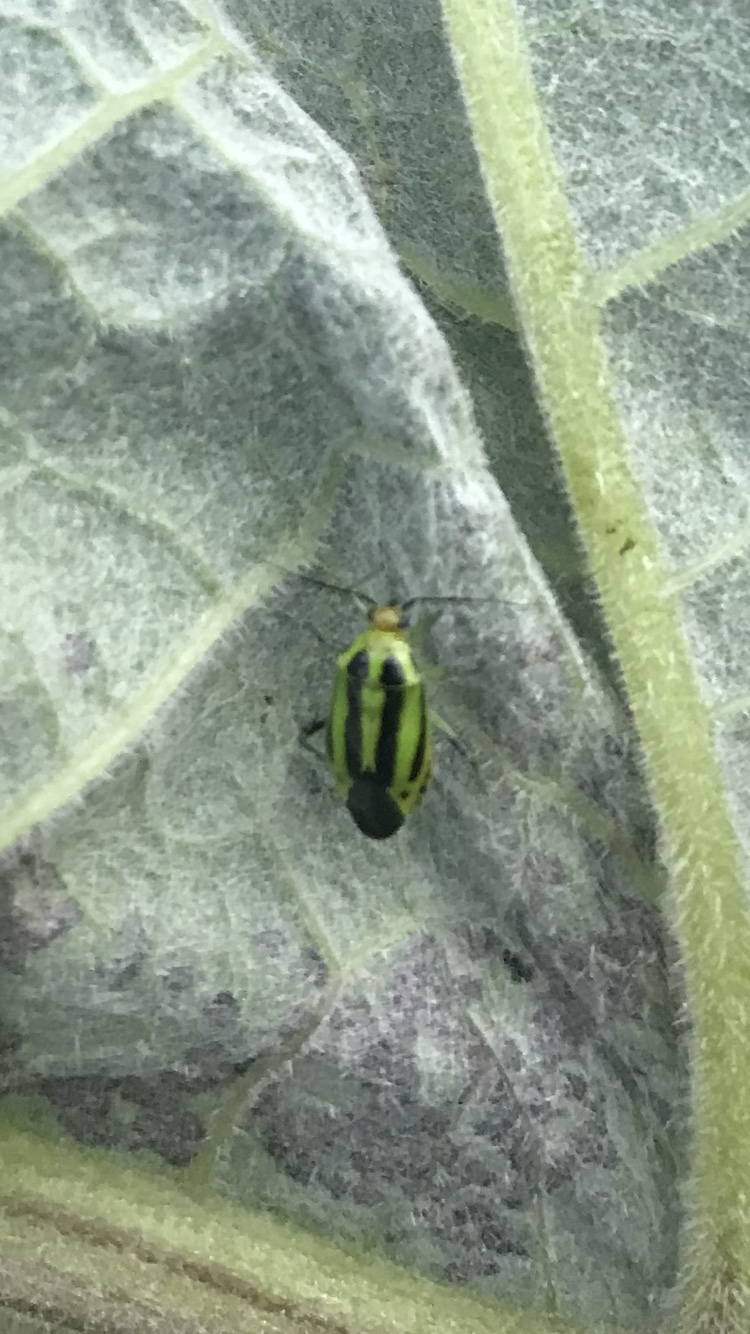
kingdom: Animalia
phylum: Arthropoda
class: Insecta
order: Hemiptera
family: Miridae
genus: Poecilocapsus
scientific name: Poecilocapsus lineatus
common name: Four-lined plant bug
